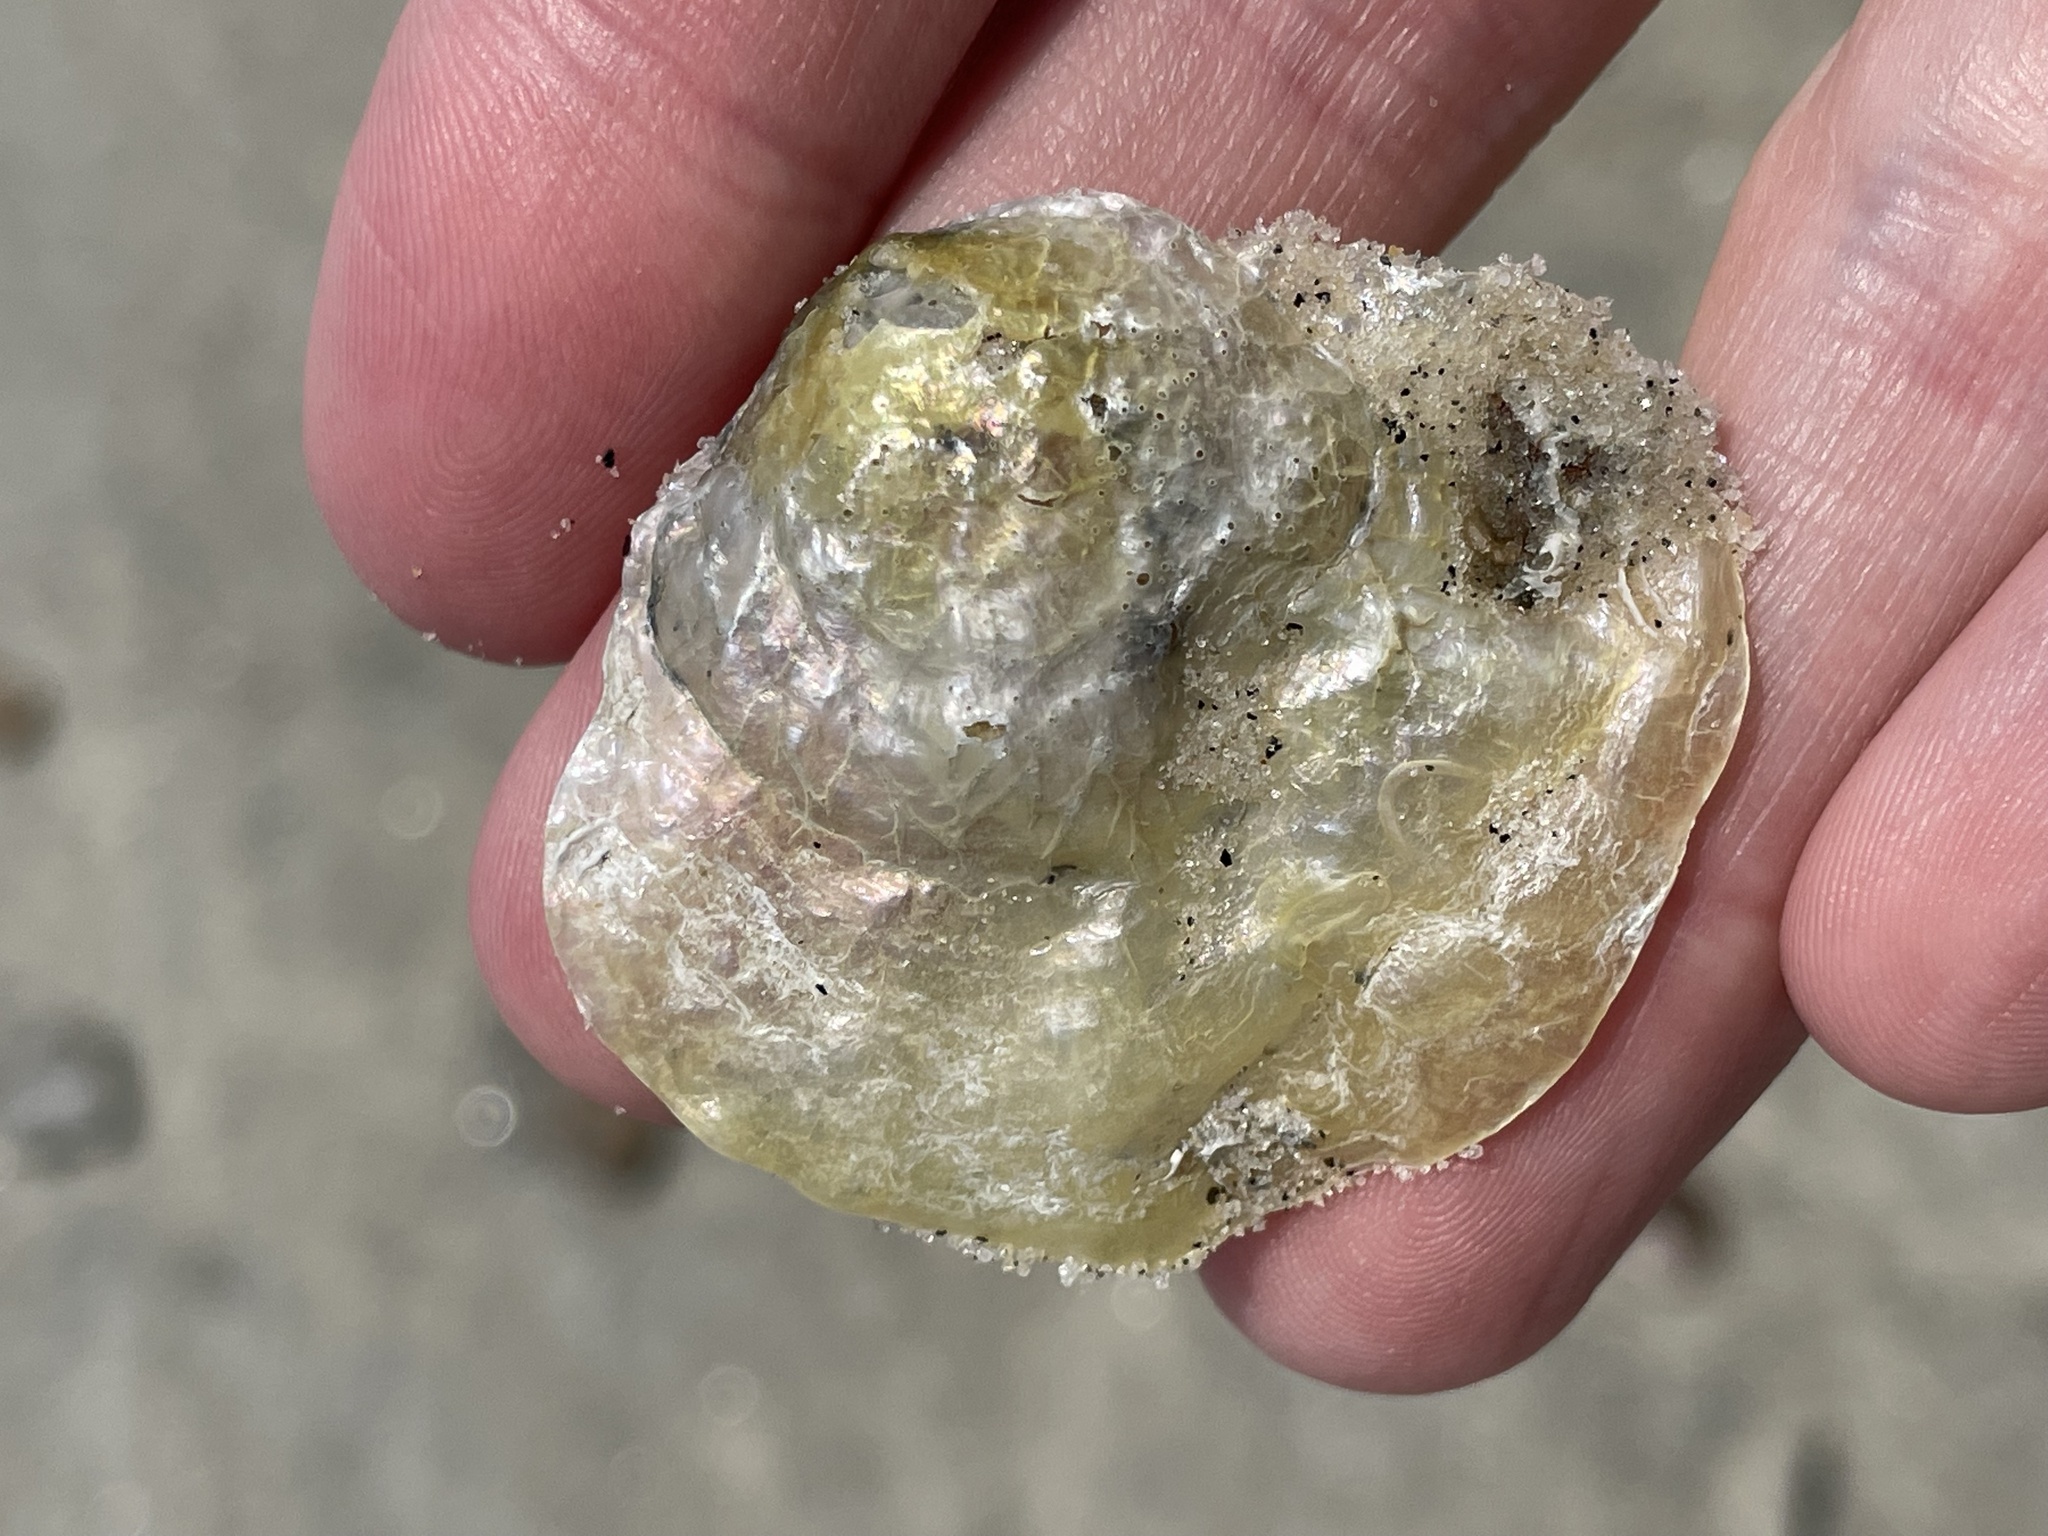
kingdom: Animalia
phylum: Mollusca
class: Bivalvia
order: Pectinida
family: Anomiidae
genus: Anomia
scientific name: Anomia simplex
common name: Common jingle shell
